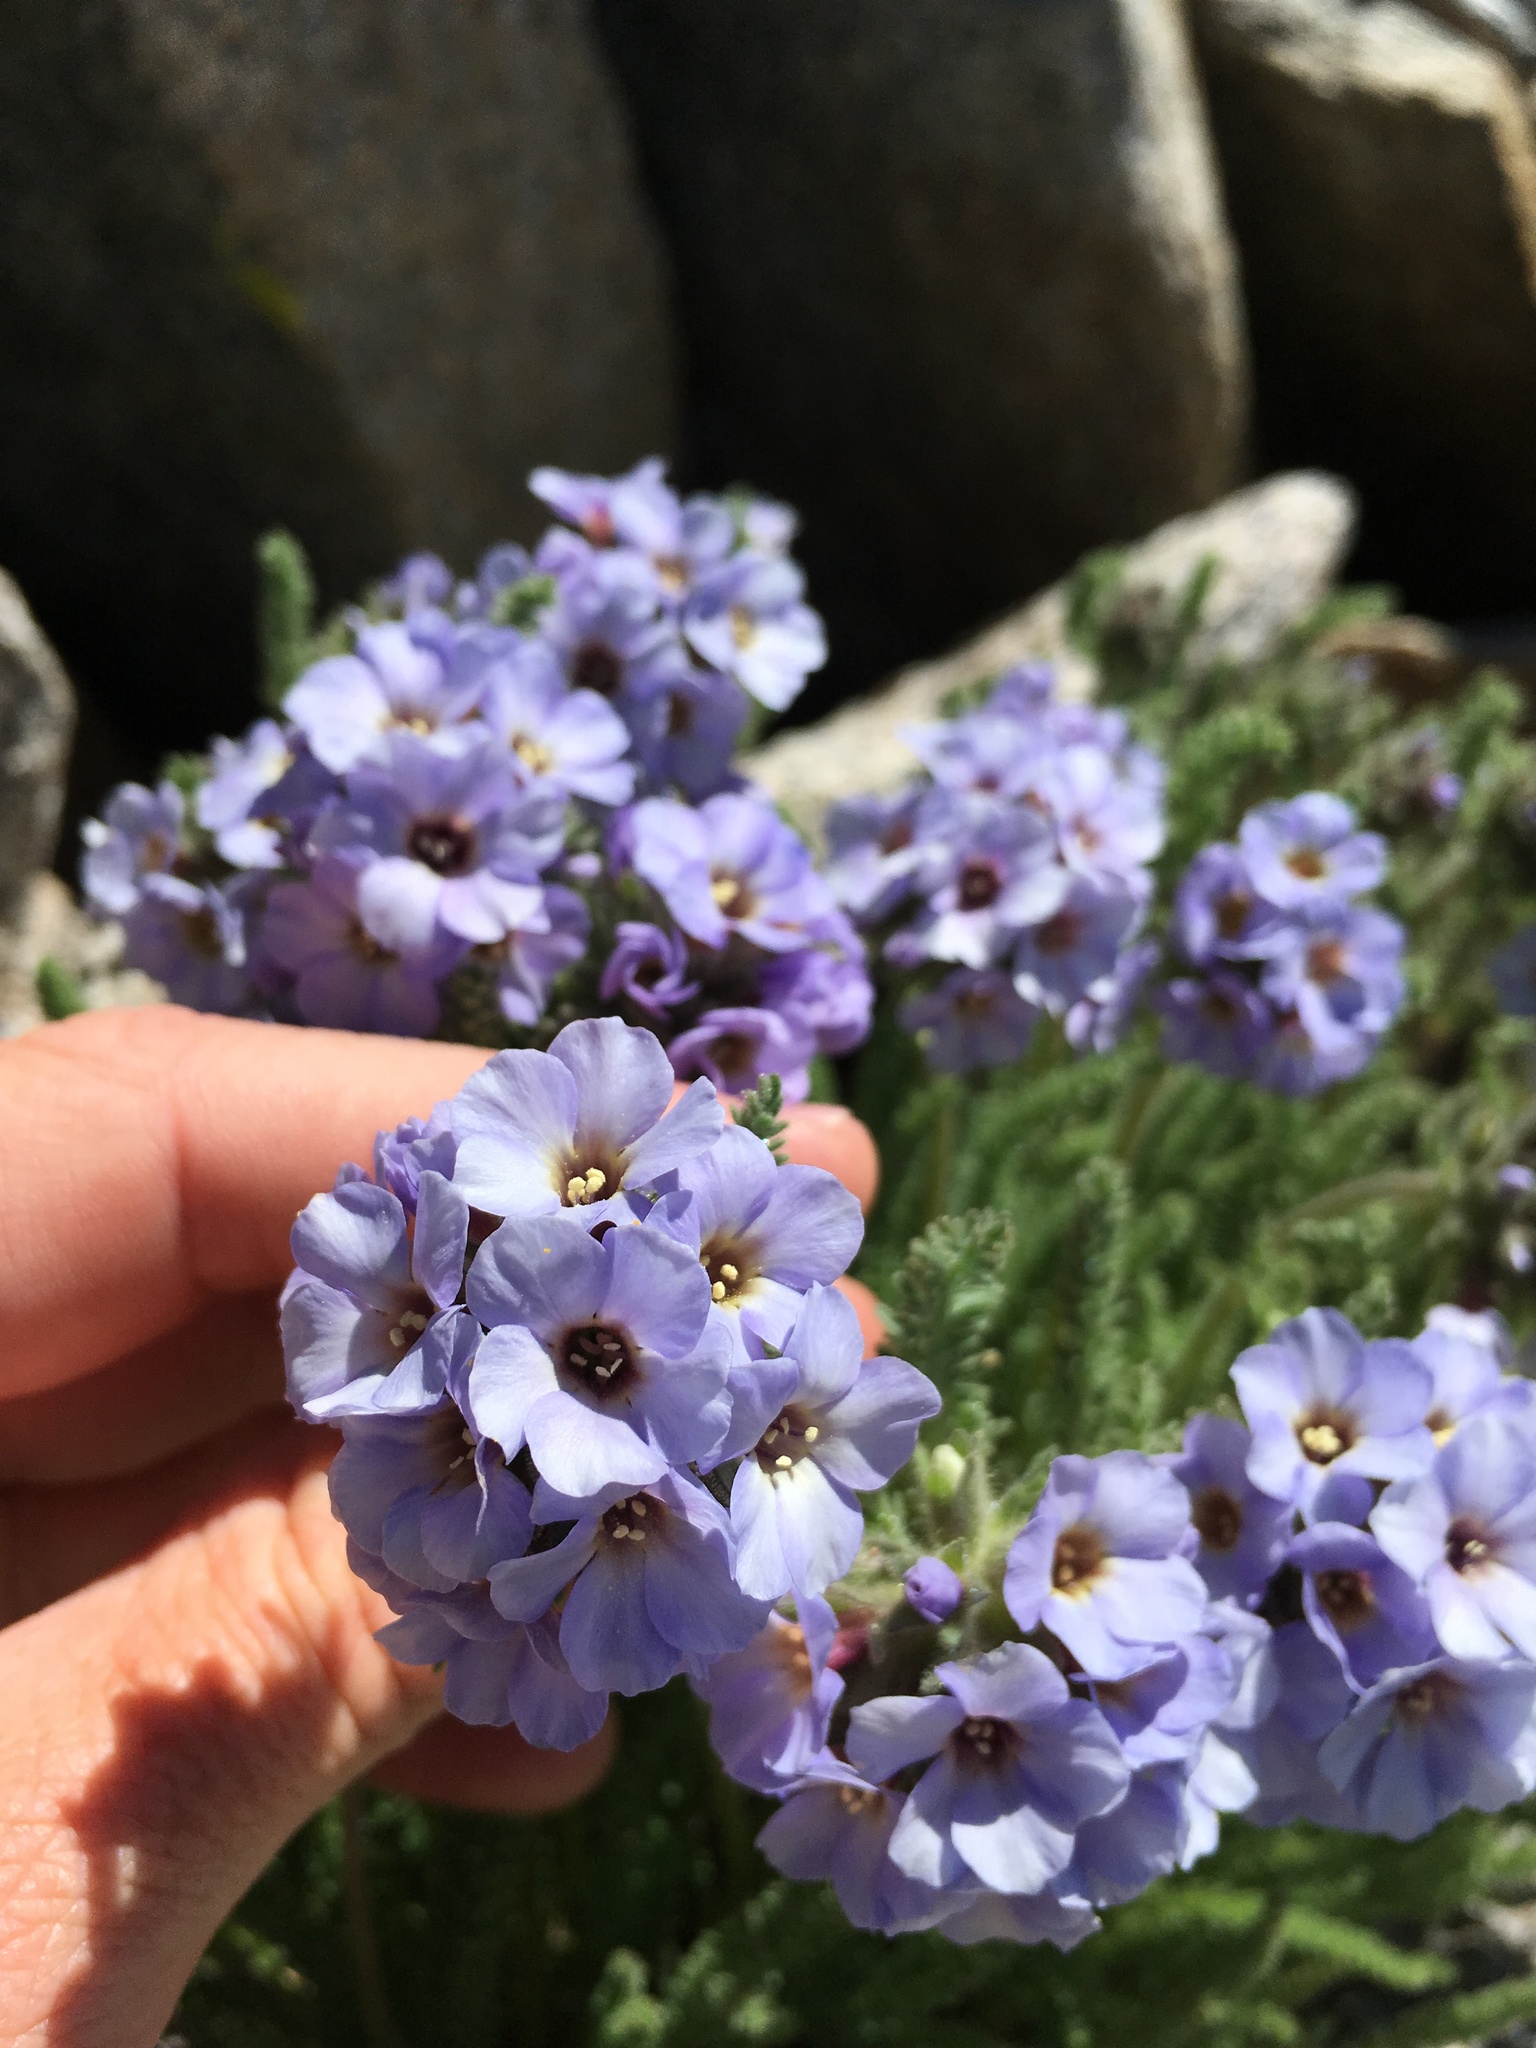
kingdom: Plantae
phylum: Tracheophyta
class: Magnoliopsida
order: Ericales
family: Polemoniaceae
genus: Polemonium
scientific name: Polemonium eximium
